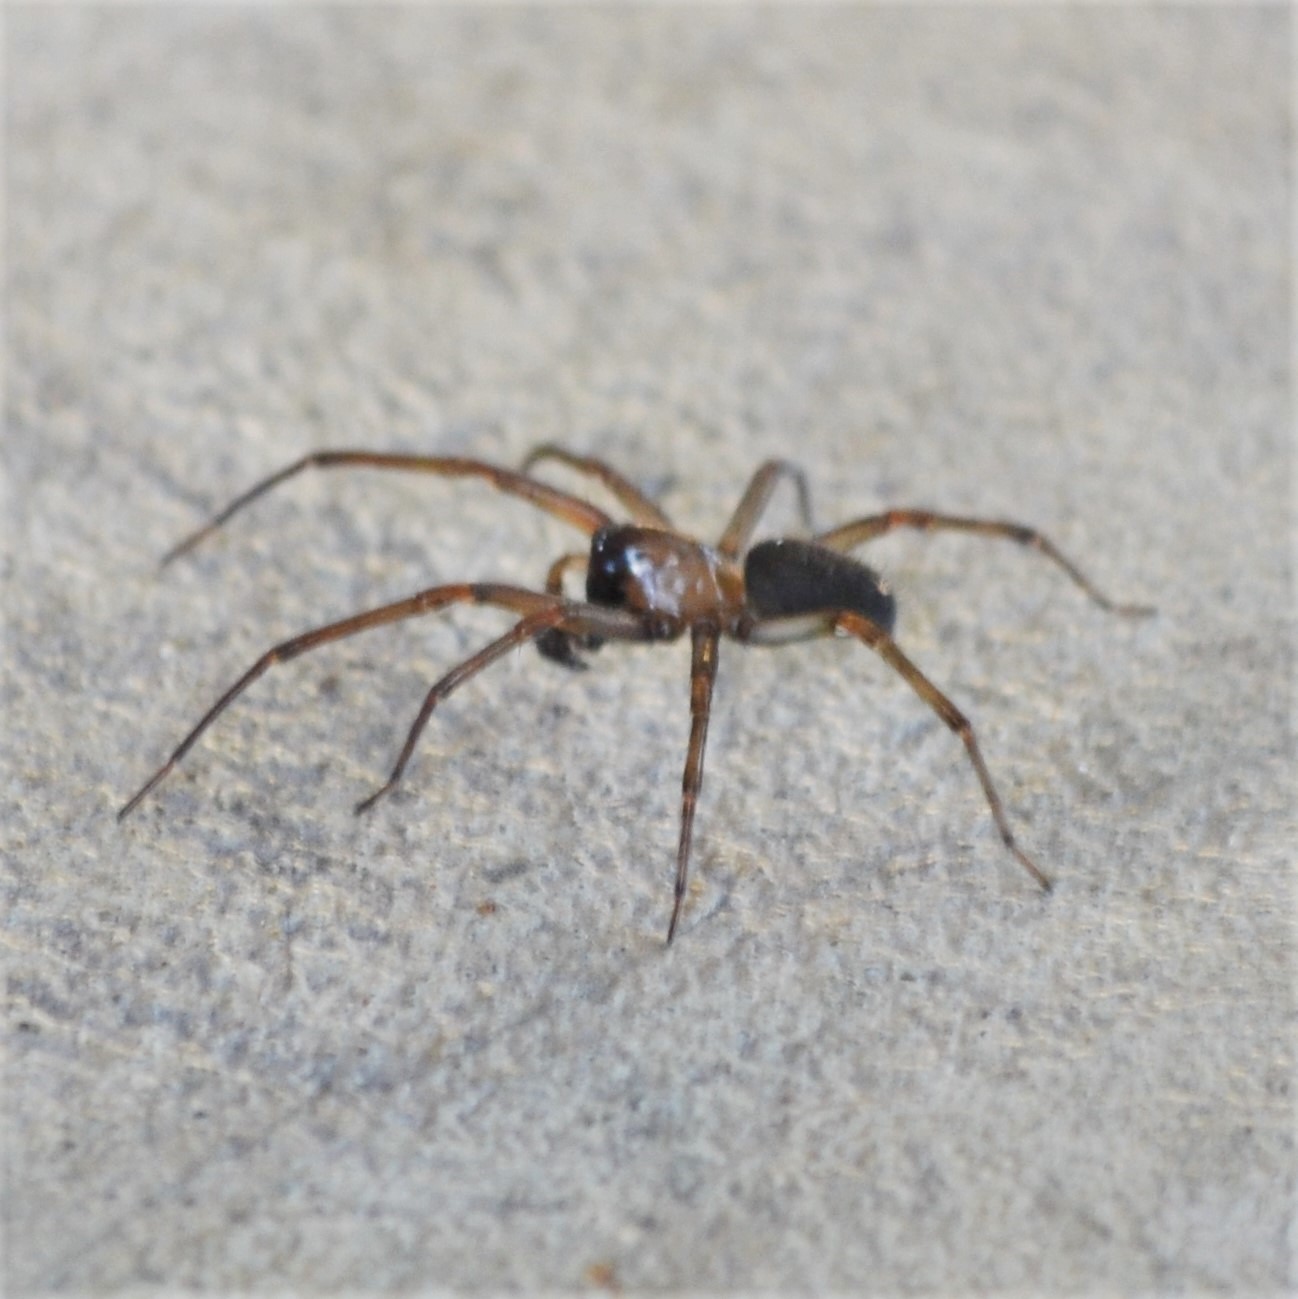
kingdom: Animalia
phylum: Arthropoda
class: Arachnida
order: Araneae
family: Desidae
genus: Metaltella
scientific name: Metaltella simoni
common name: Cribellate spider
